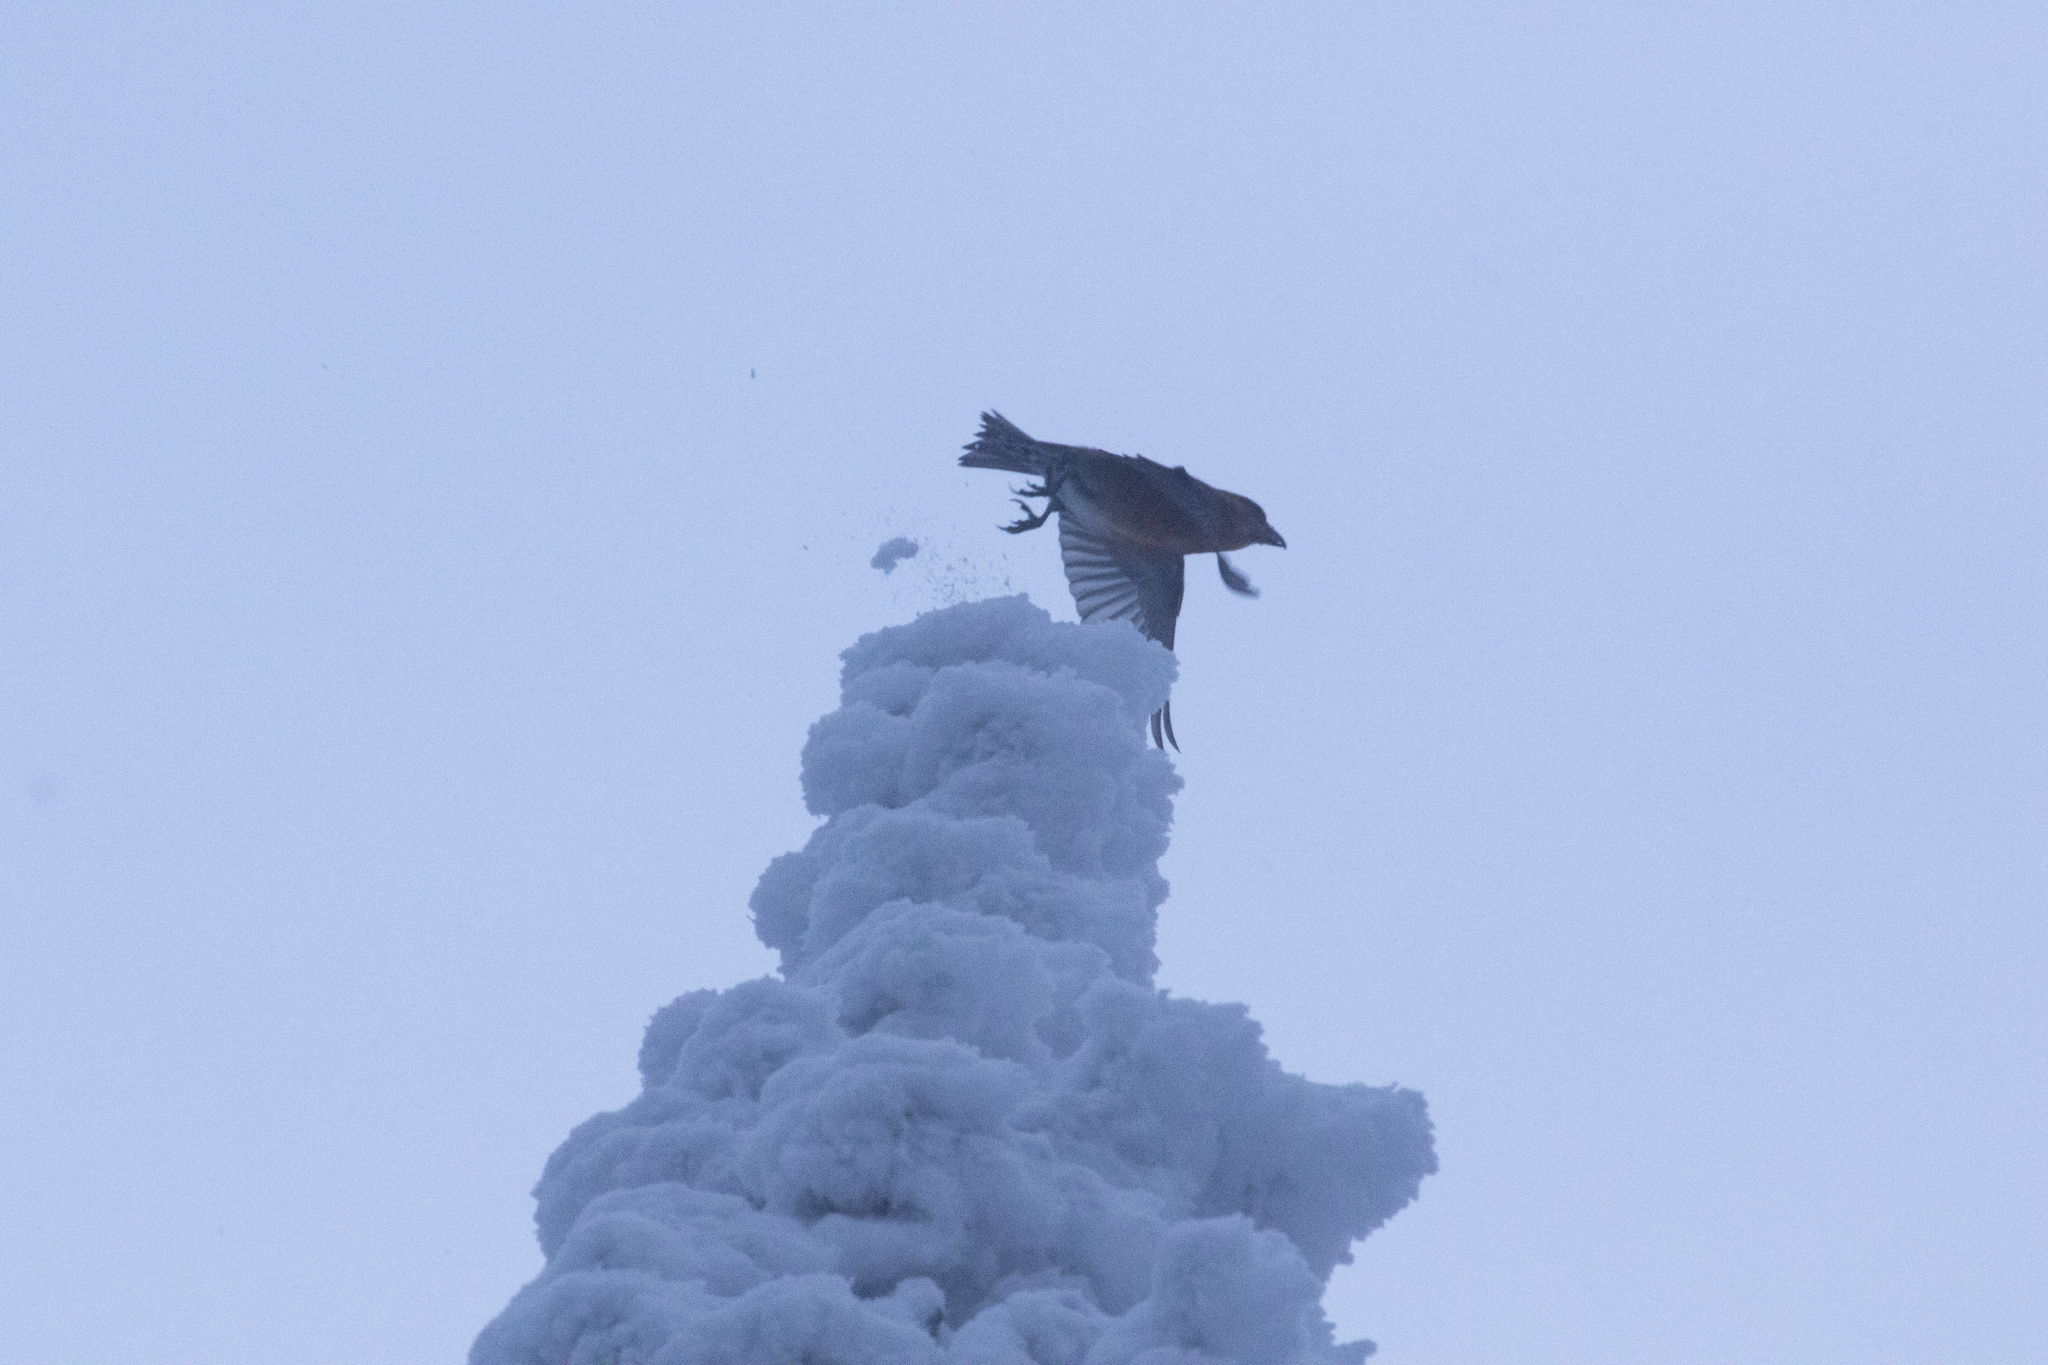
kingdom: Animalia
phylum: Chordata
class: Aves
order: Passeriformes
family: Fringillidae
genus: Loxia
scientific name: Loxia curvirostra
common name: Red crossbill
